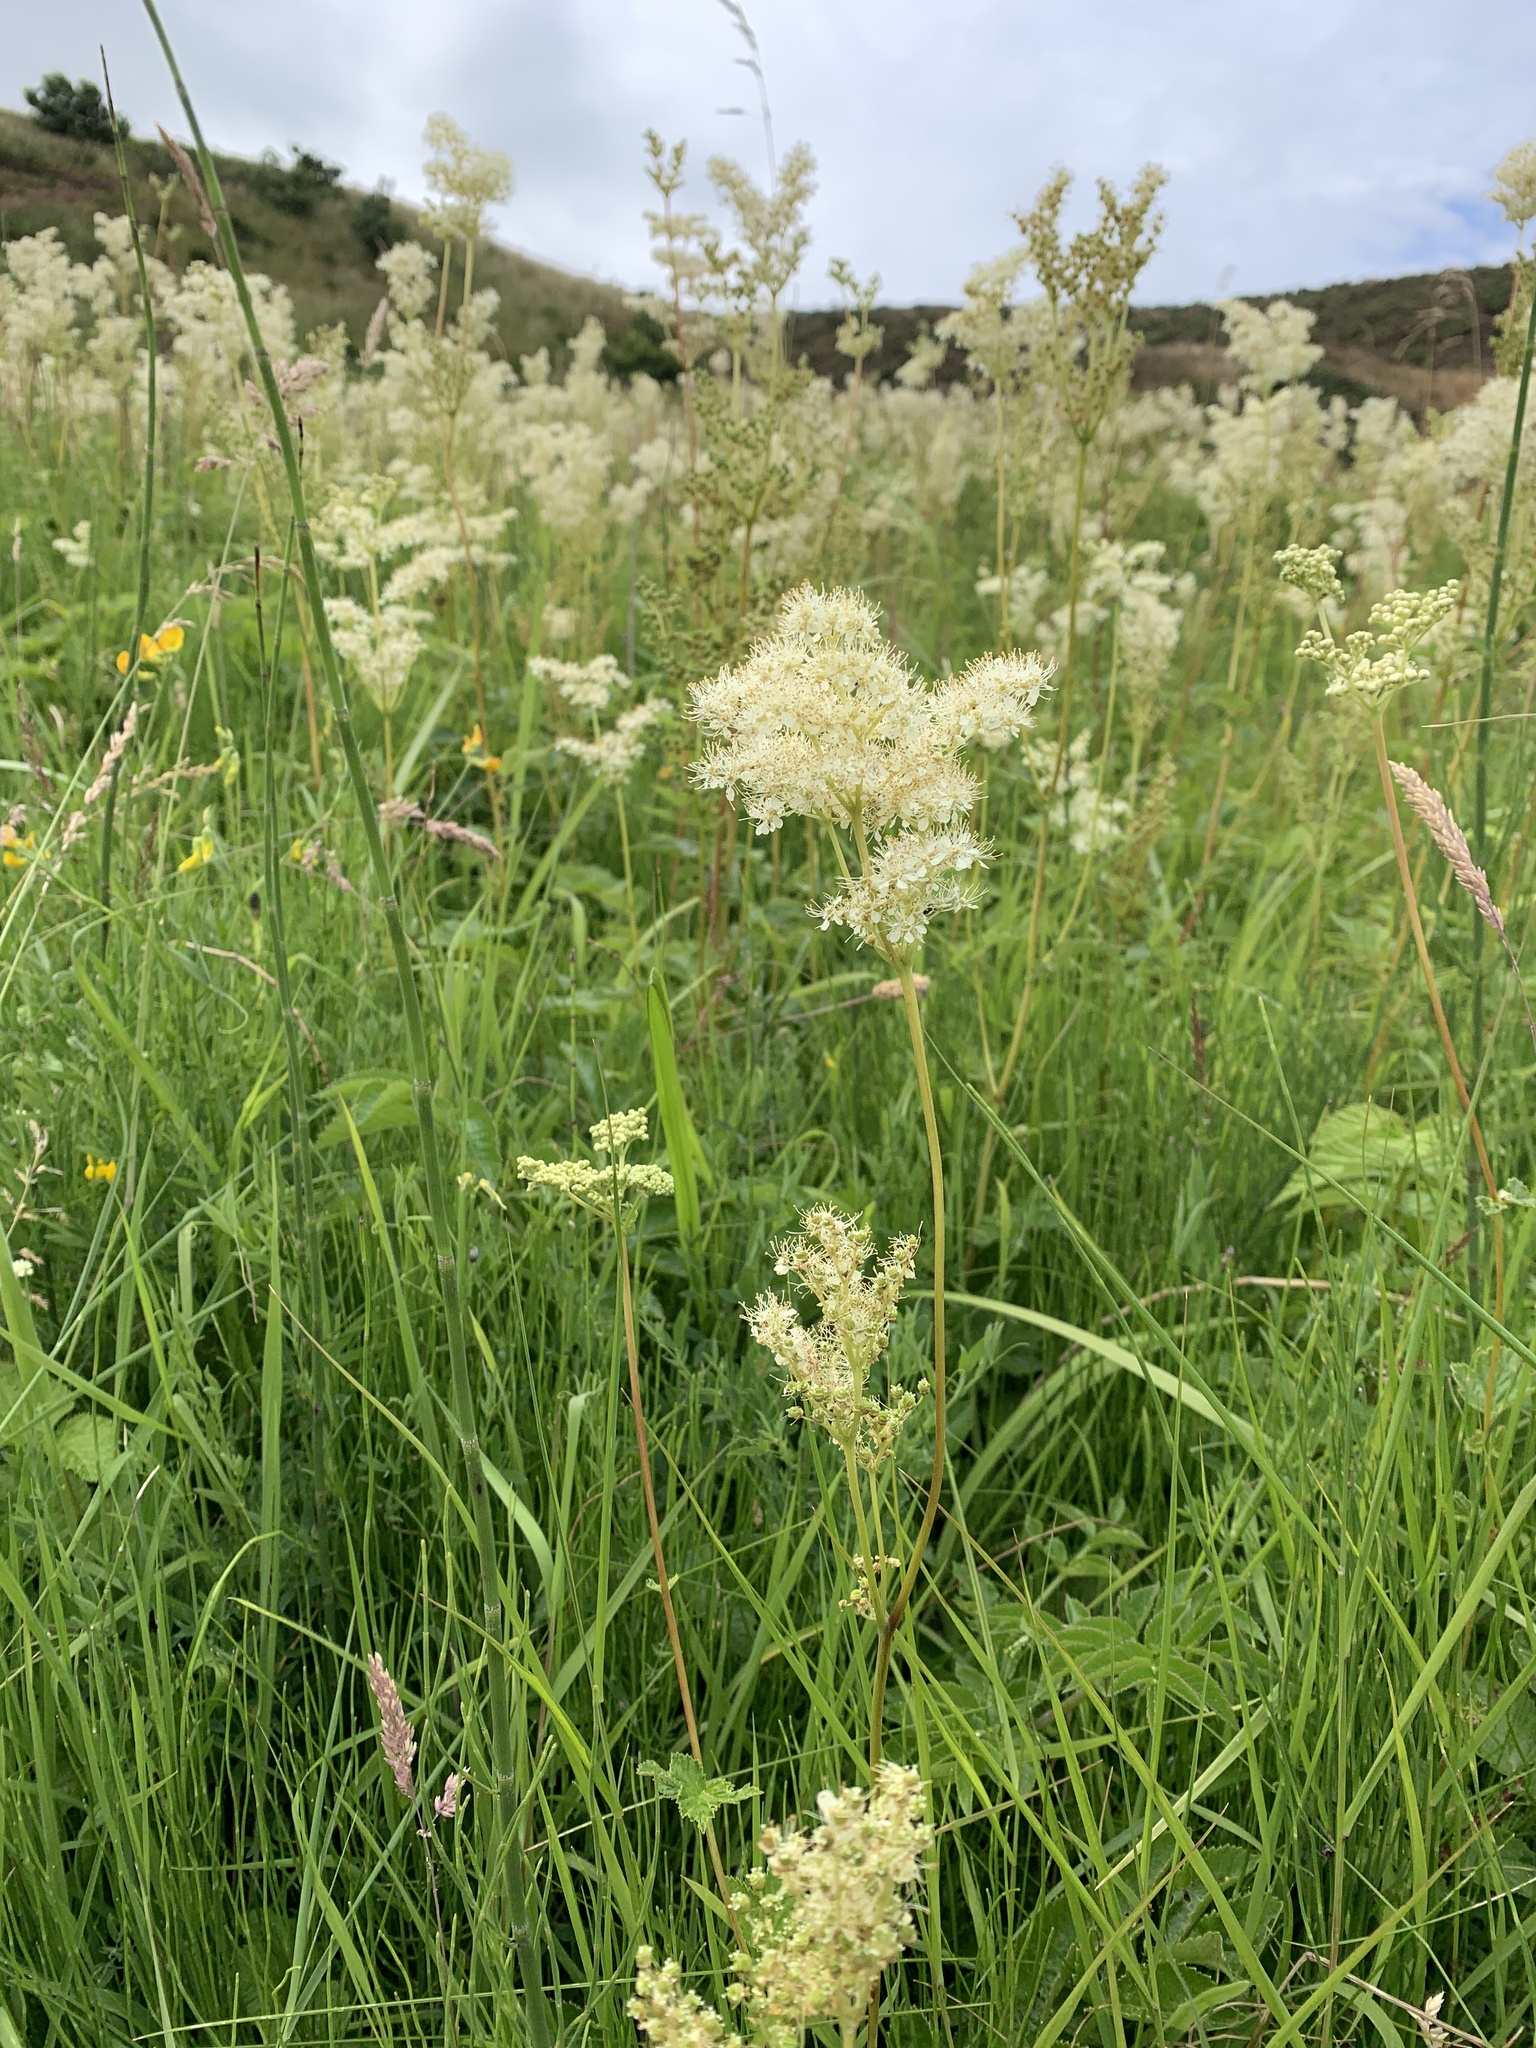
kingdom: Plantae
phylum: Tracheophyta
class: Magnoliopsida
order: Rosales
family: Rosaceae
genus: Filipendula
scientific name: Filipendula ulmaria
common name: Meadowsweet
